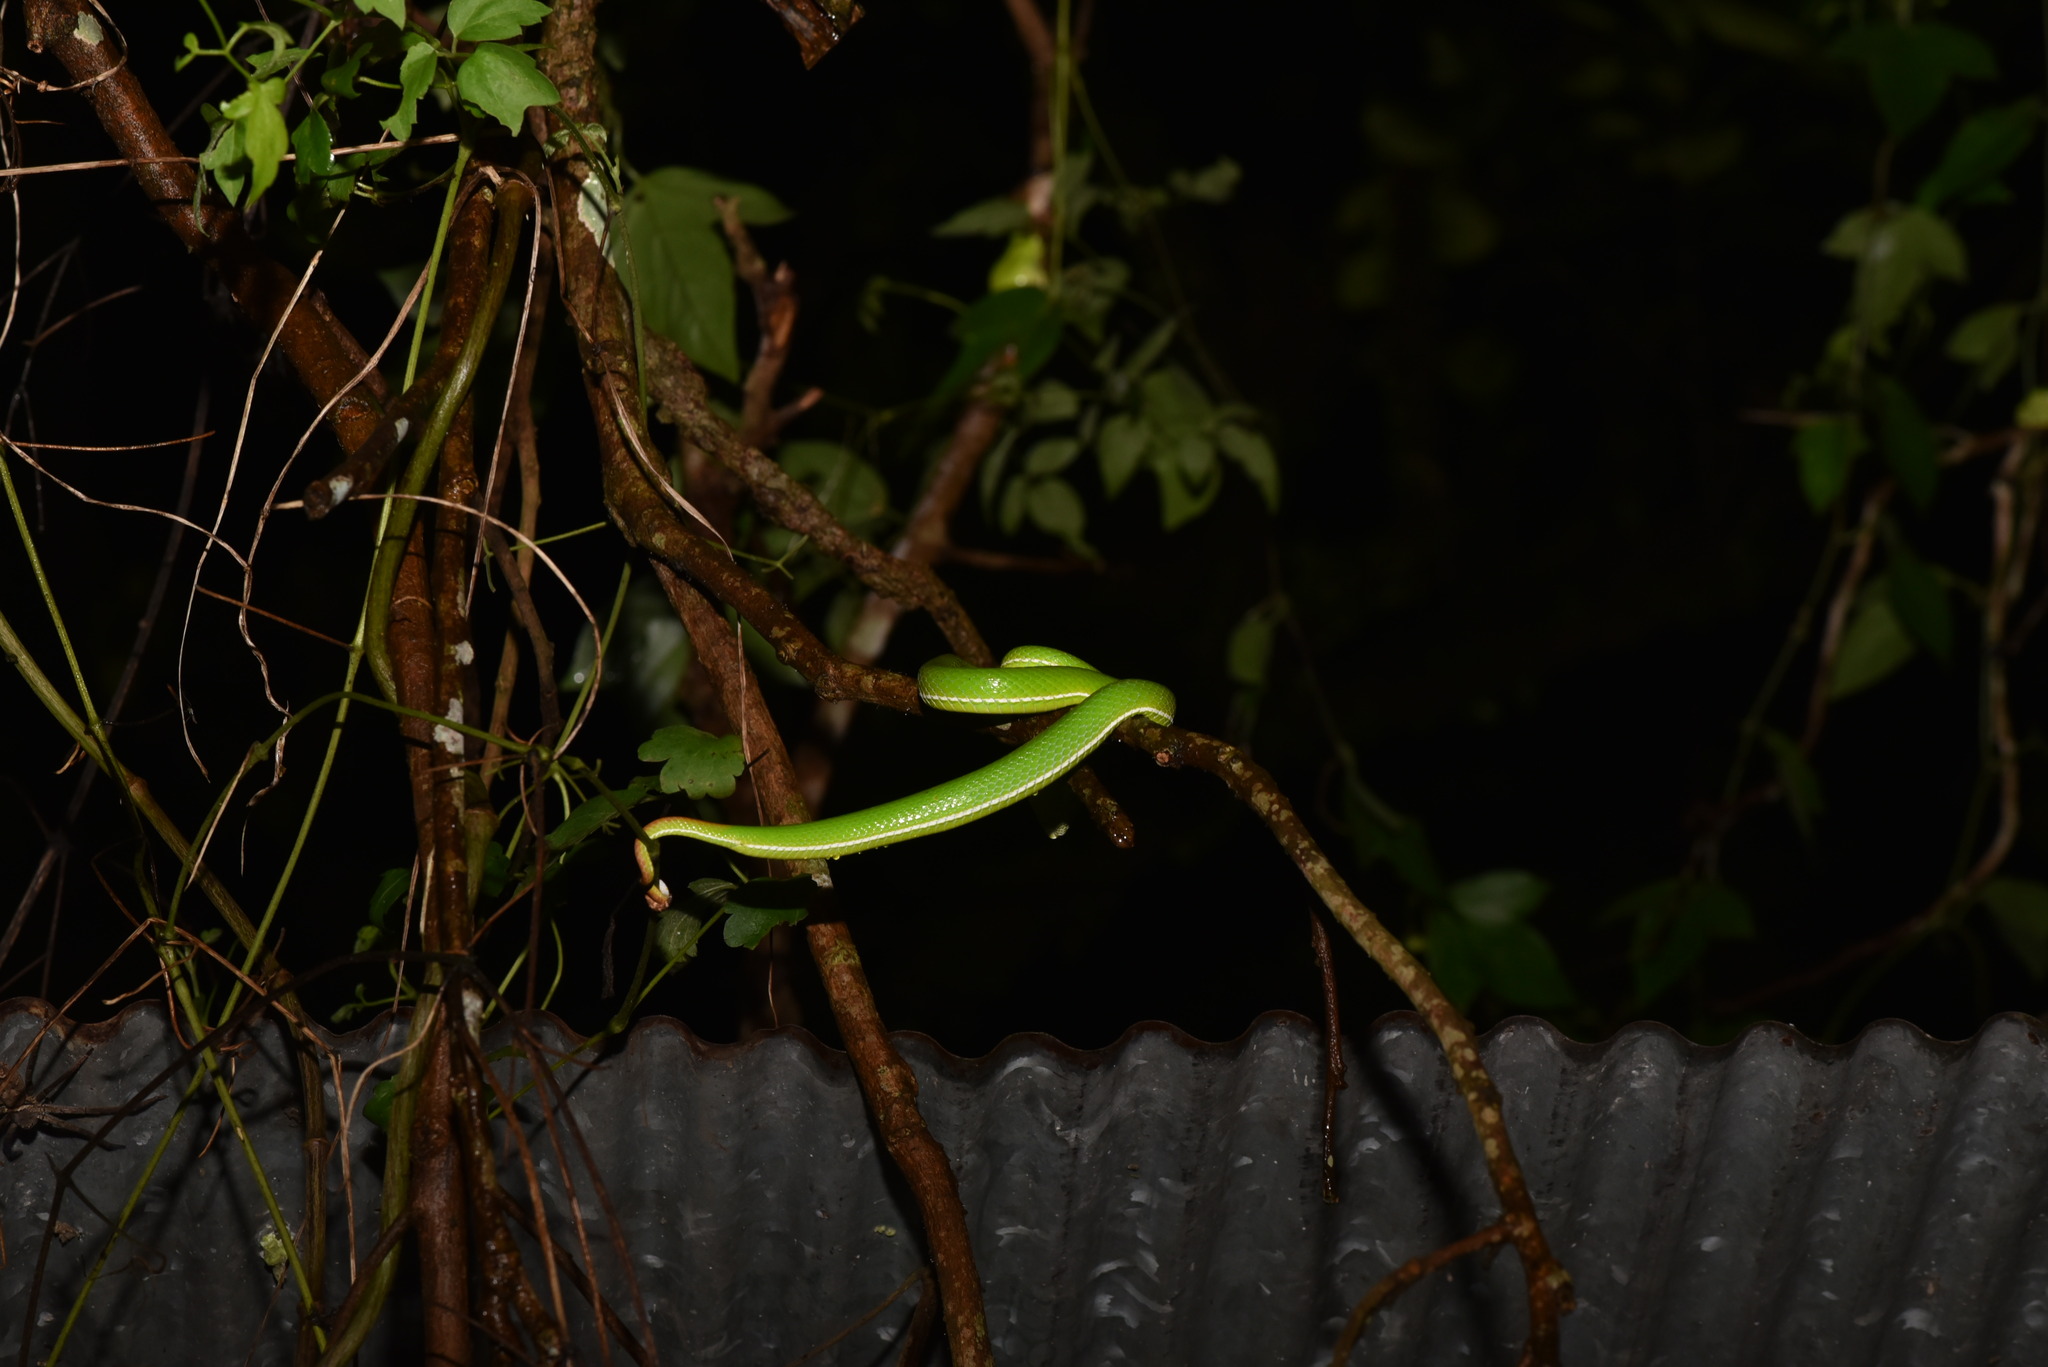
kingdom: Animalia
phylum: Chordata
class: Squamata
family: Viperidae
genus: Trimeresurus
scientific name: Trimeresurus stejnegeri
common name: Chen’s bamboo pit viper
